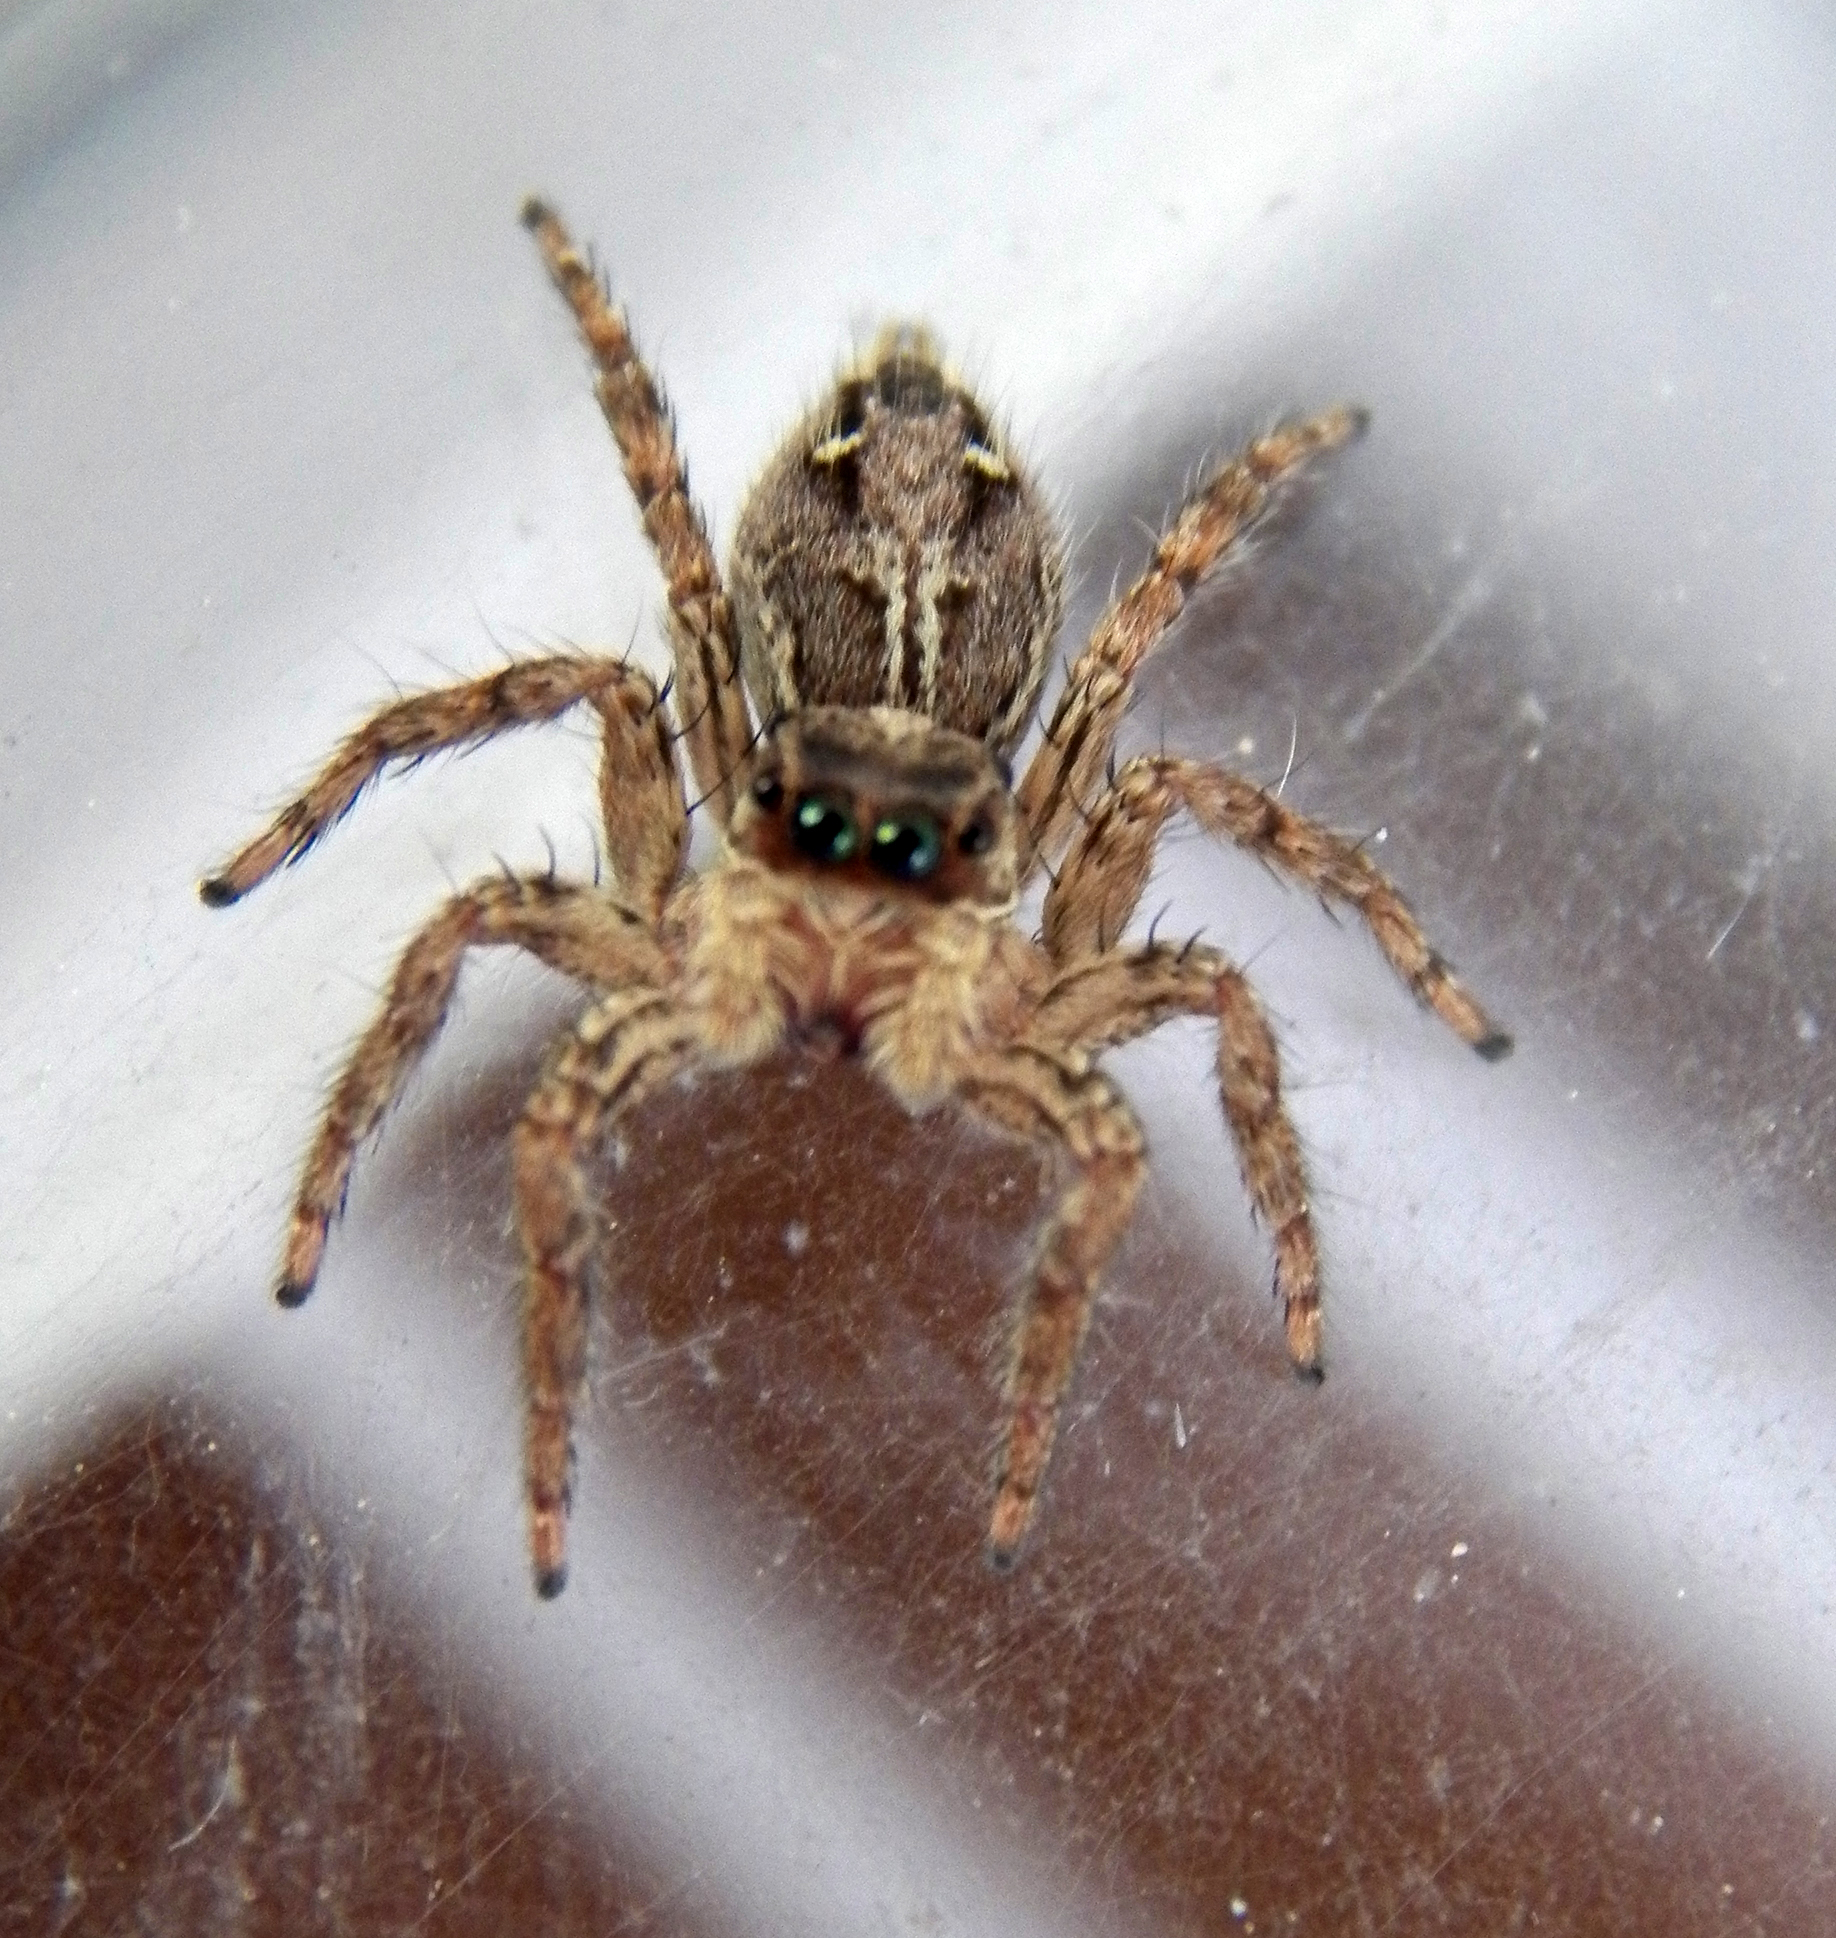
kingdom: Animalia
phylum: Arthropoda
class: Arachnida
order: Araneae
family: Salticidae
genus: Plexippus
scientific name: Plexippus paykulli
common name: Pantropical jumper
